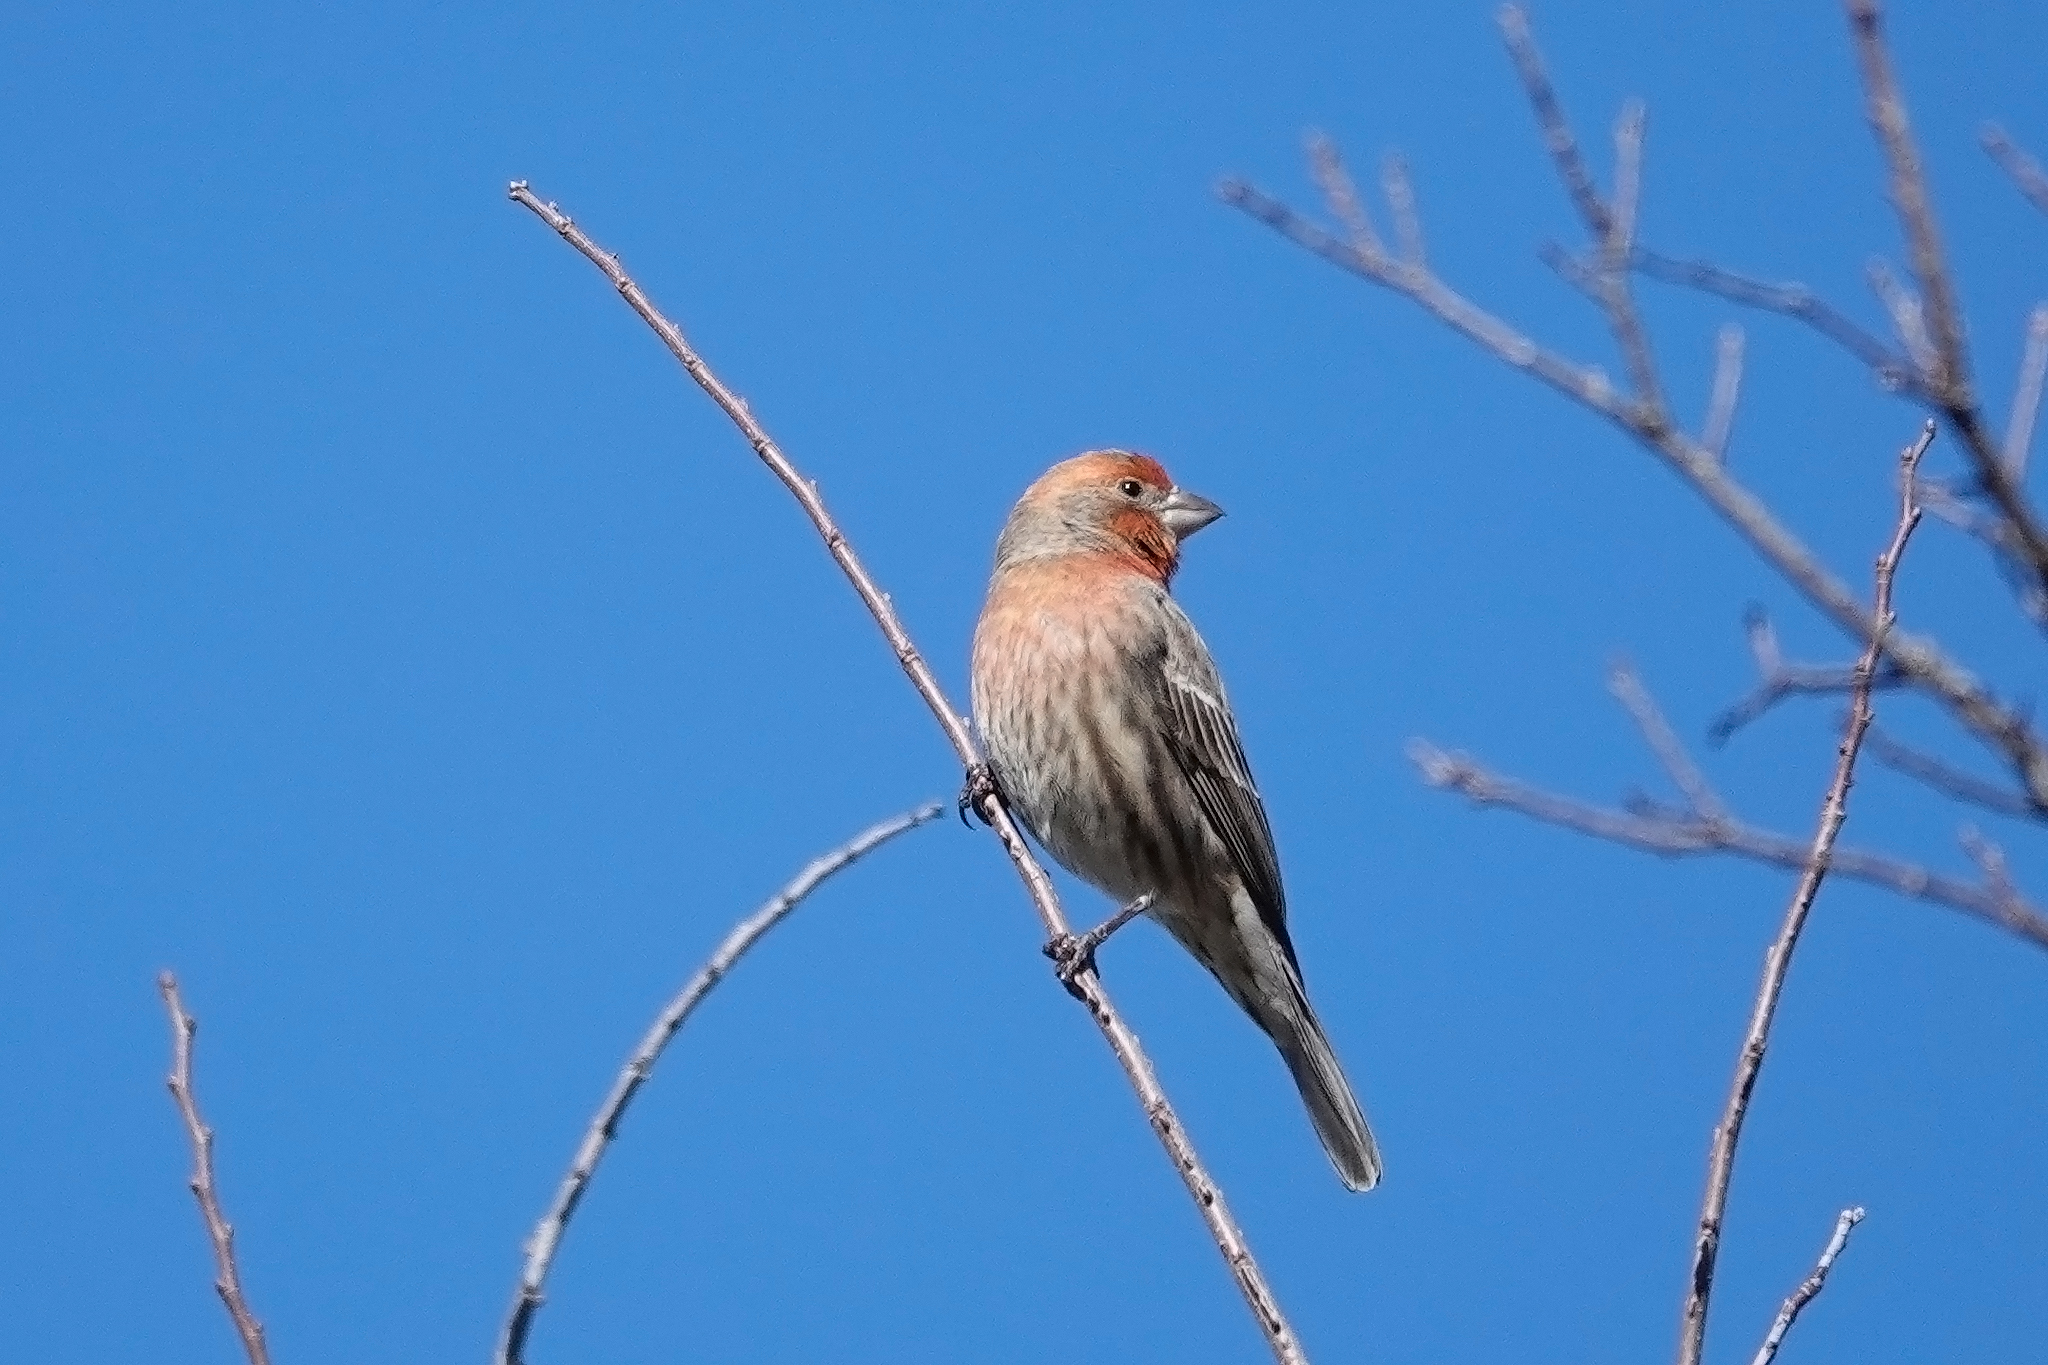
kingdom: Animalia
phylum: Chordata
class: Aves
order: Passeriformes
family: Fringillidae
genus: Haemorhous
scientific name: Haemorhous mexicanus
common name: House finch
